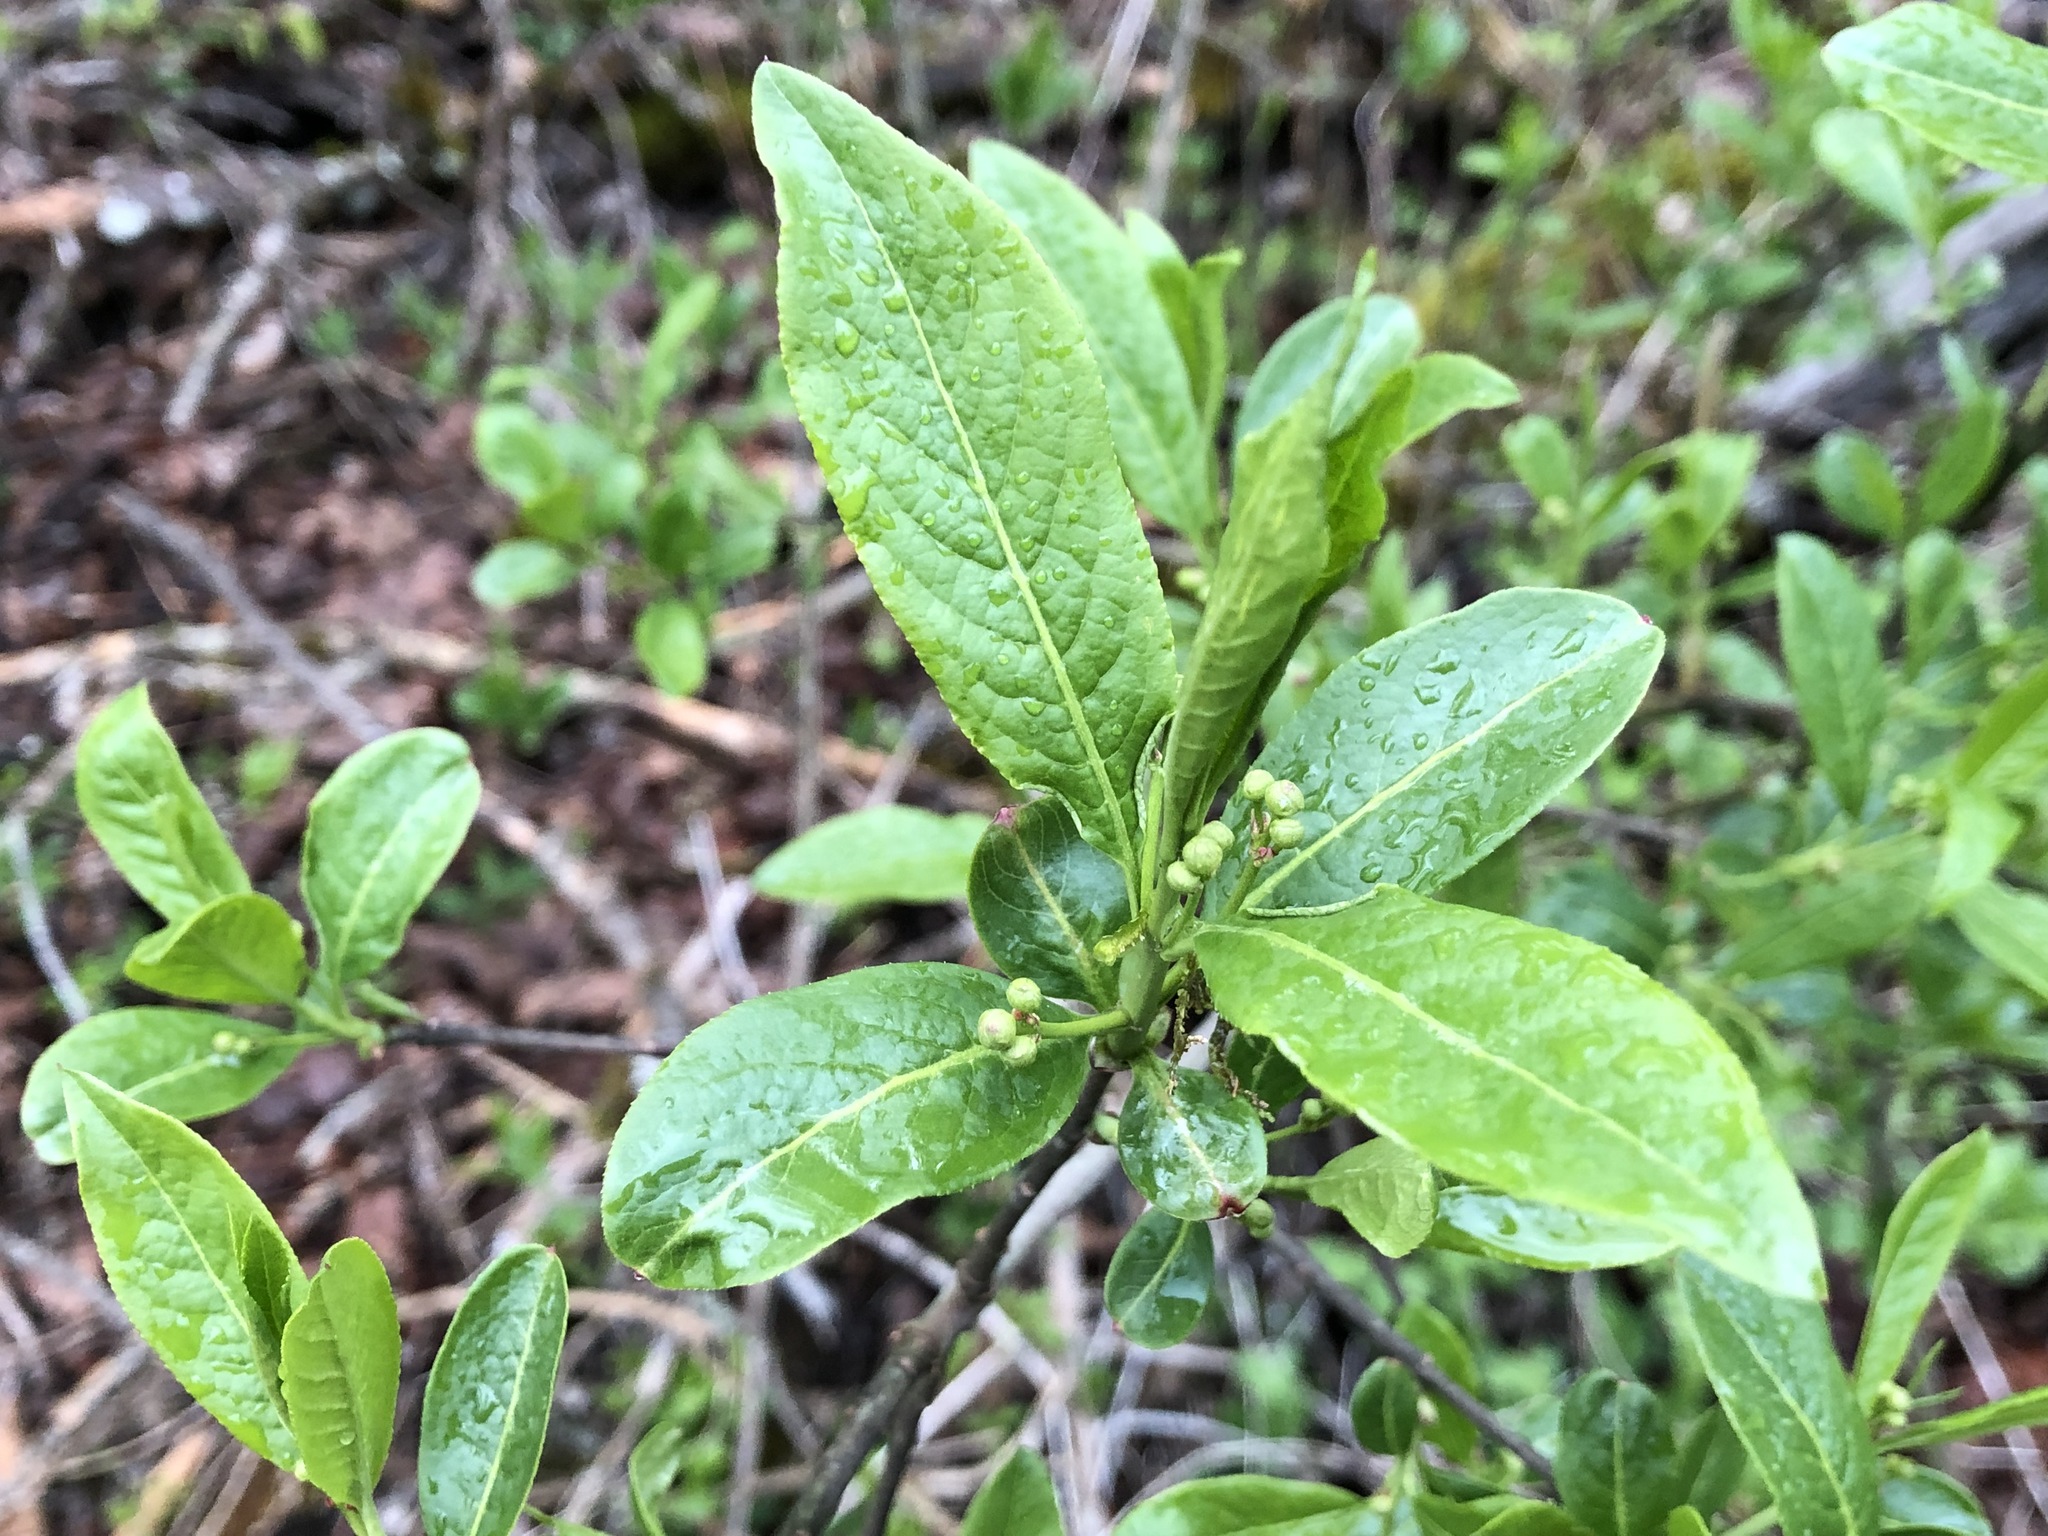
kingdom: Plantae
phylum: Tracheophyta
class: Magnoliopsida
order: Celastrales
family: Celastraceae
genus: Euonymus
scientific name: Euonymus europaeus
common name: Spindle
